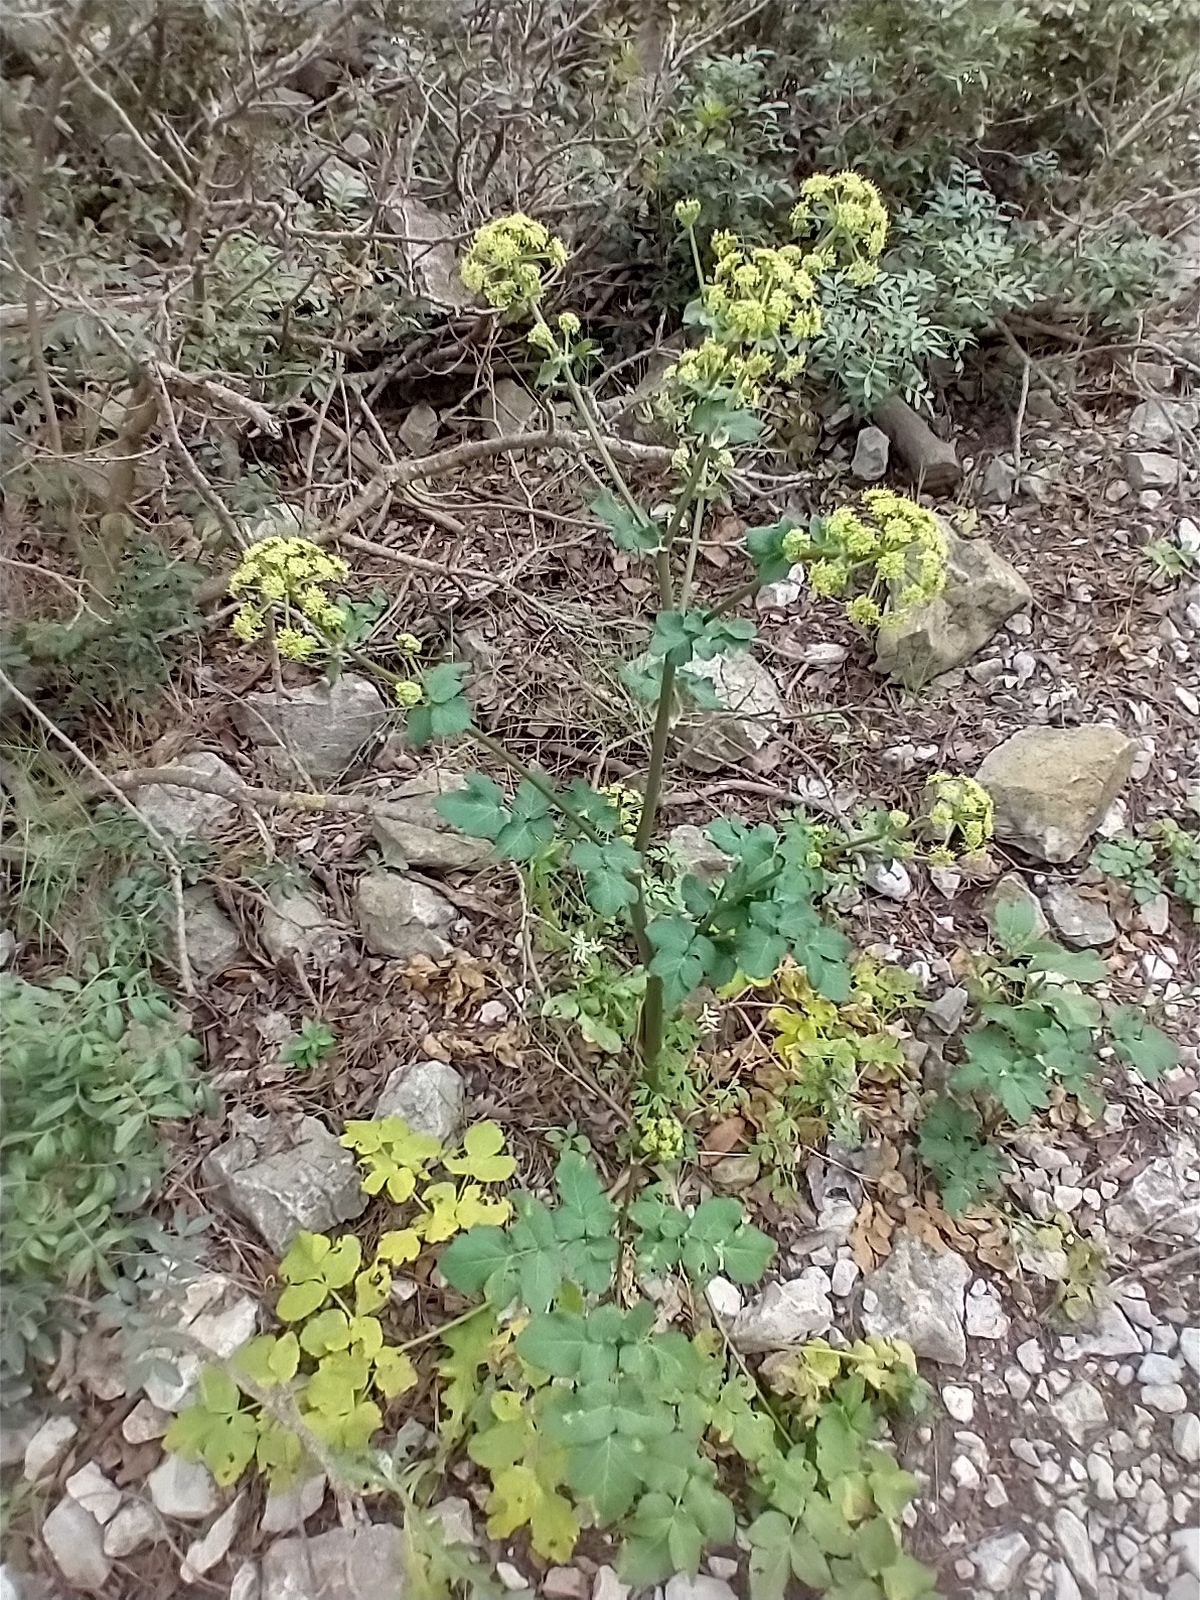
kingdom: Plantae
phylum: Tracheophyta
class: Magnoliopsida
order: Apiales
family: Apiaceae
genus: Smyrnium
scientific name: Smyrnium olusatrum
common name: Alexanders
